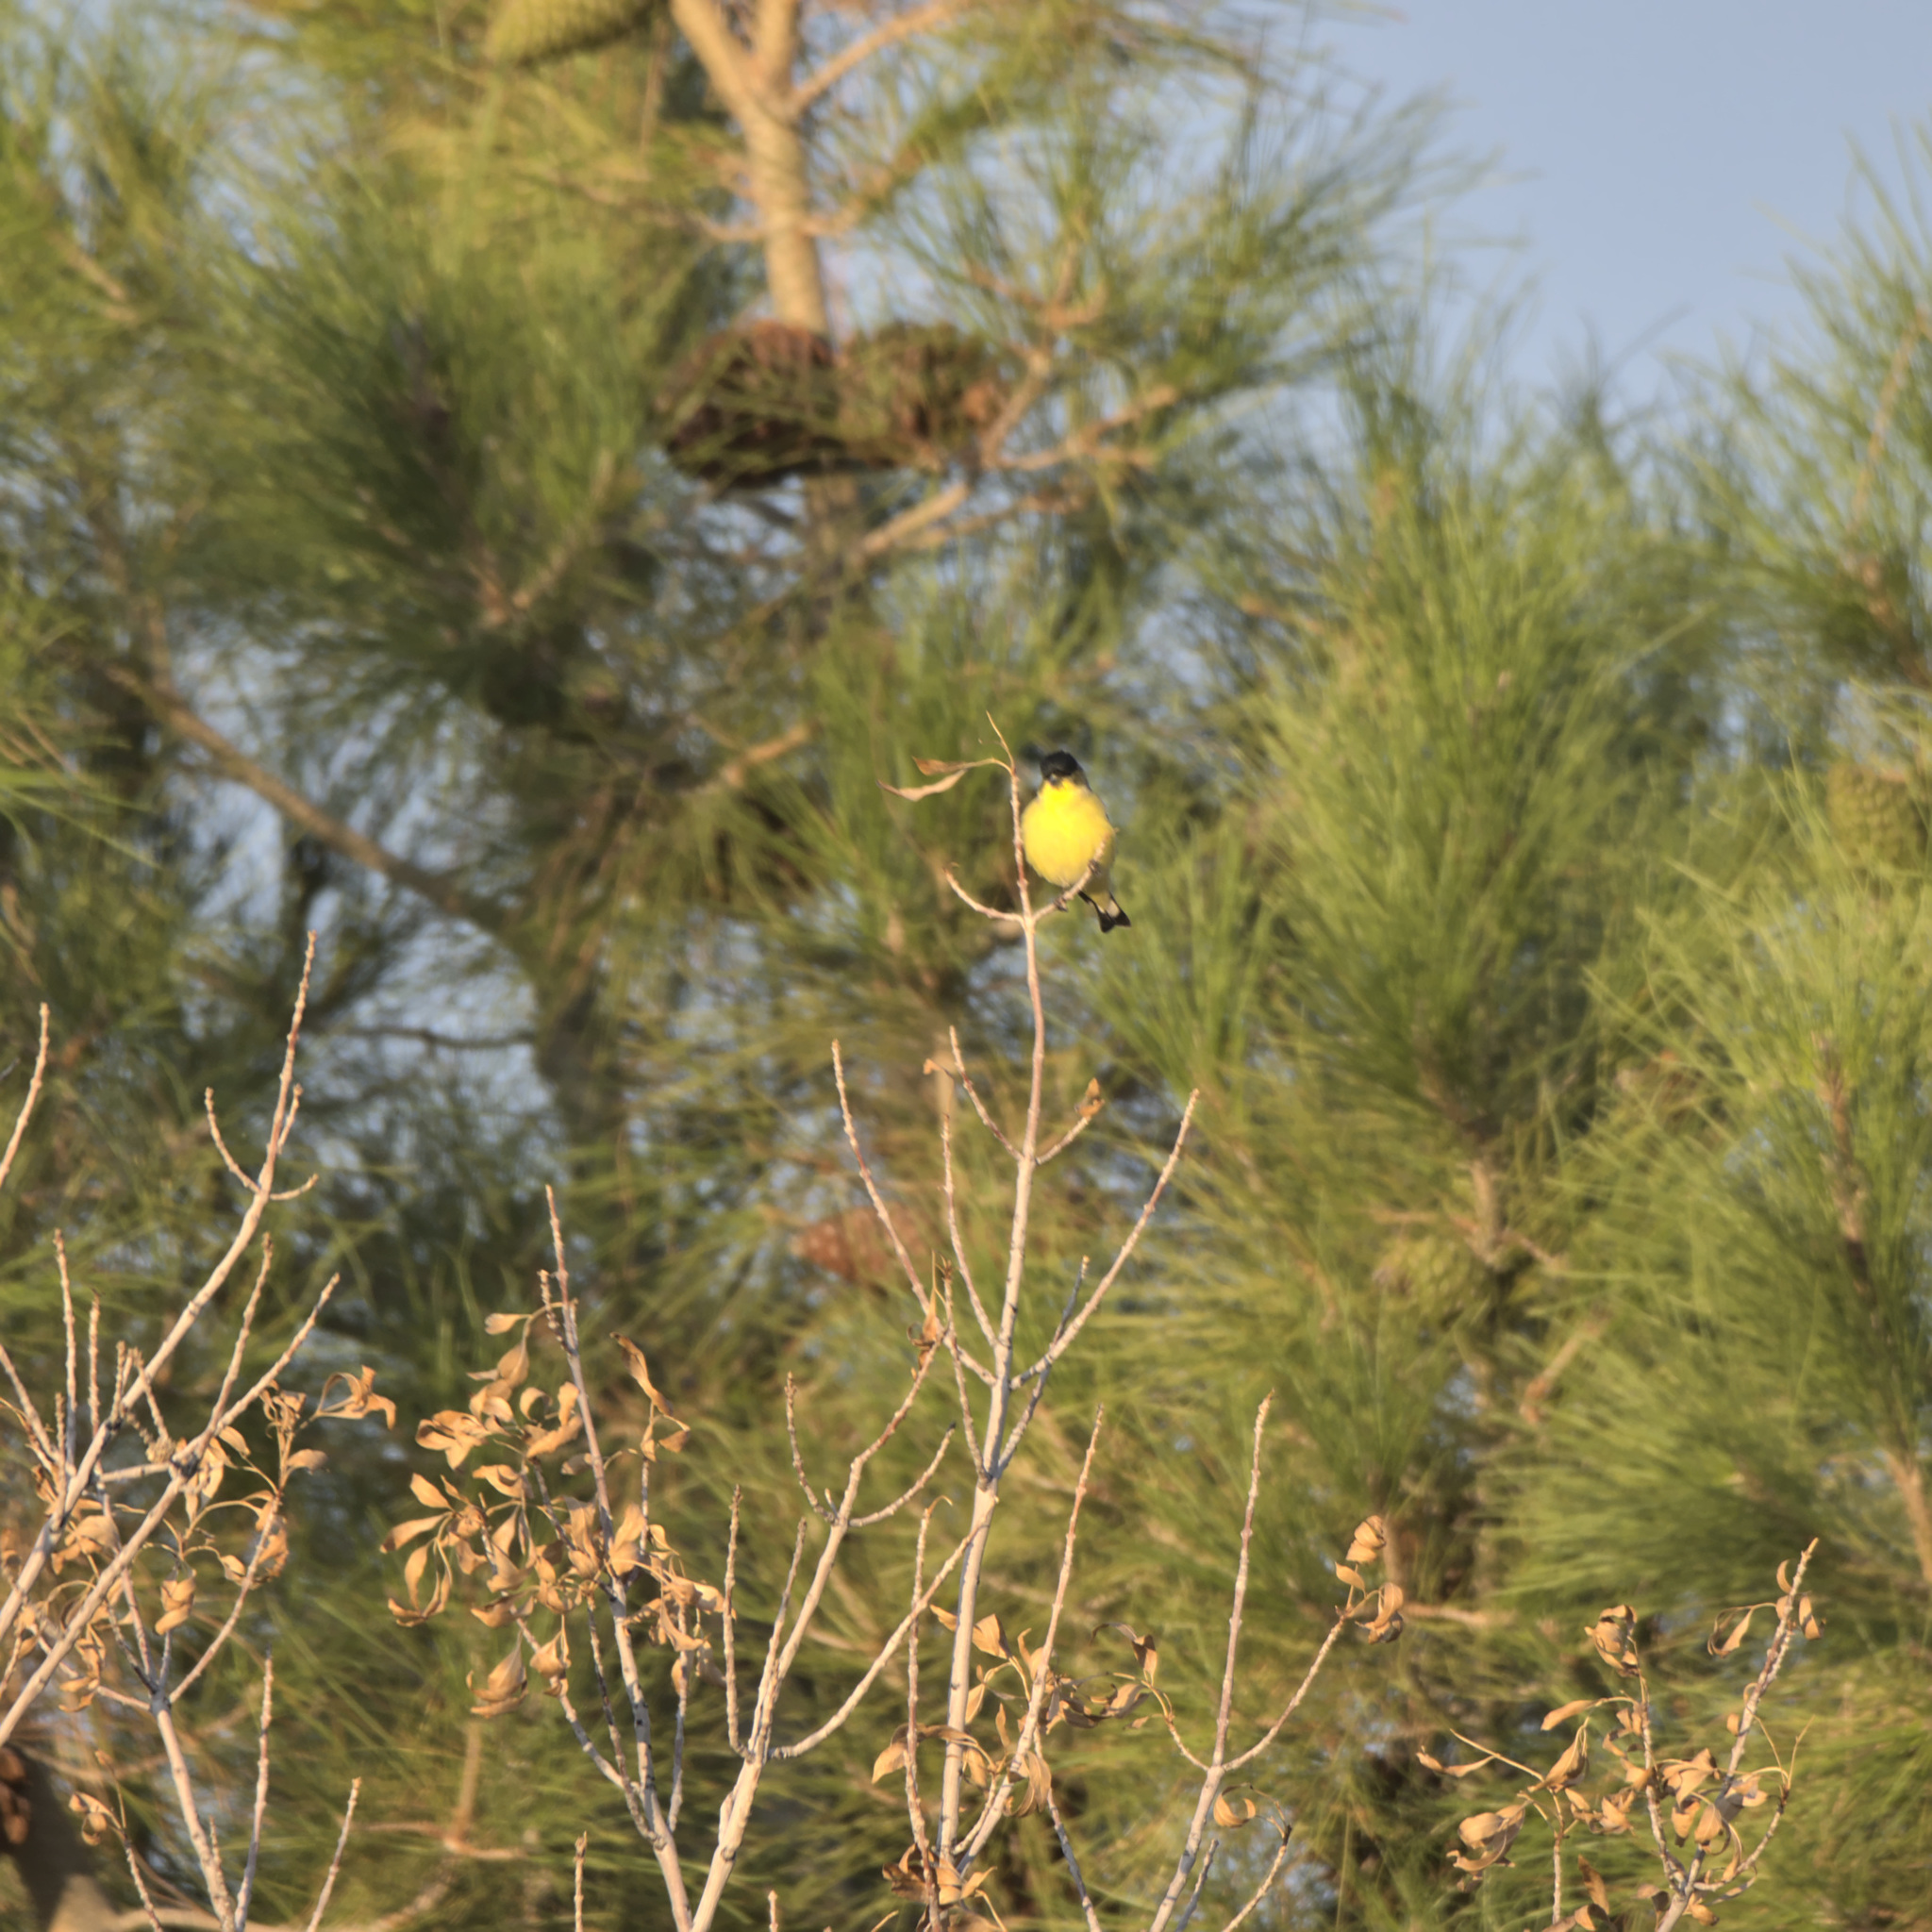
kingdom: Animalia
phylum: Chordata
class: Aves
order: Passeriformes
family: Fringillidae
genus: Spinus
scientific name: Spinus psaltria
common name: Lesser goldfinch
